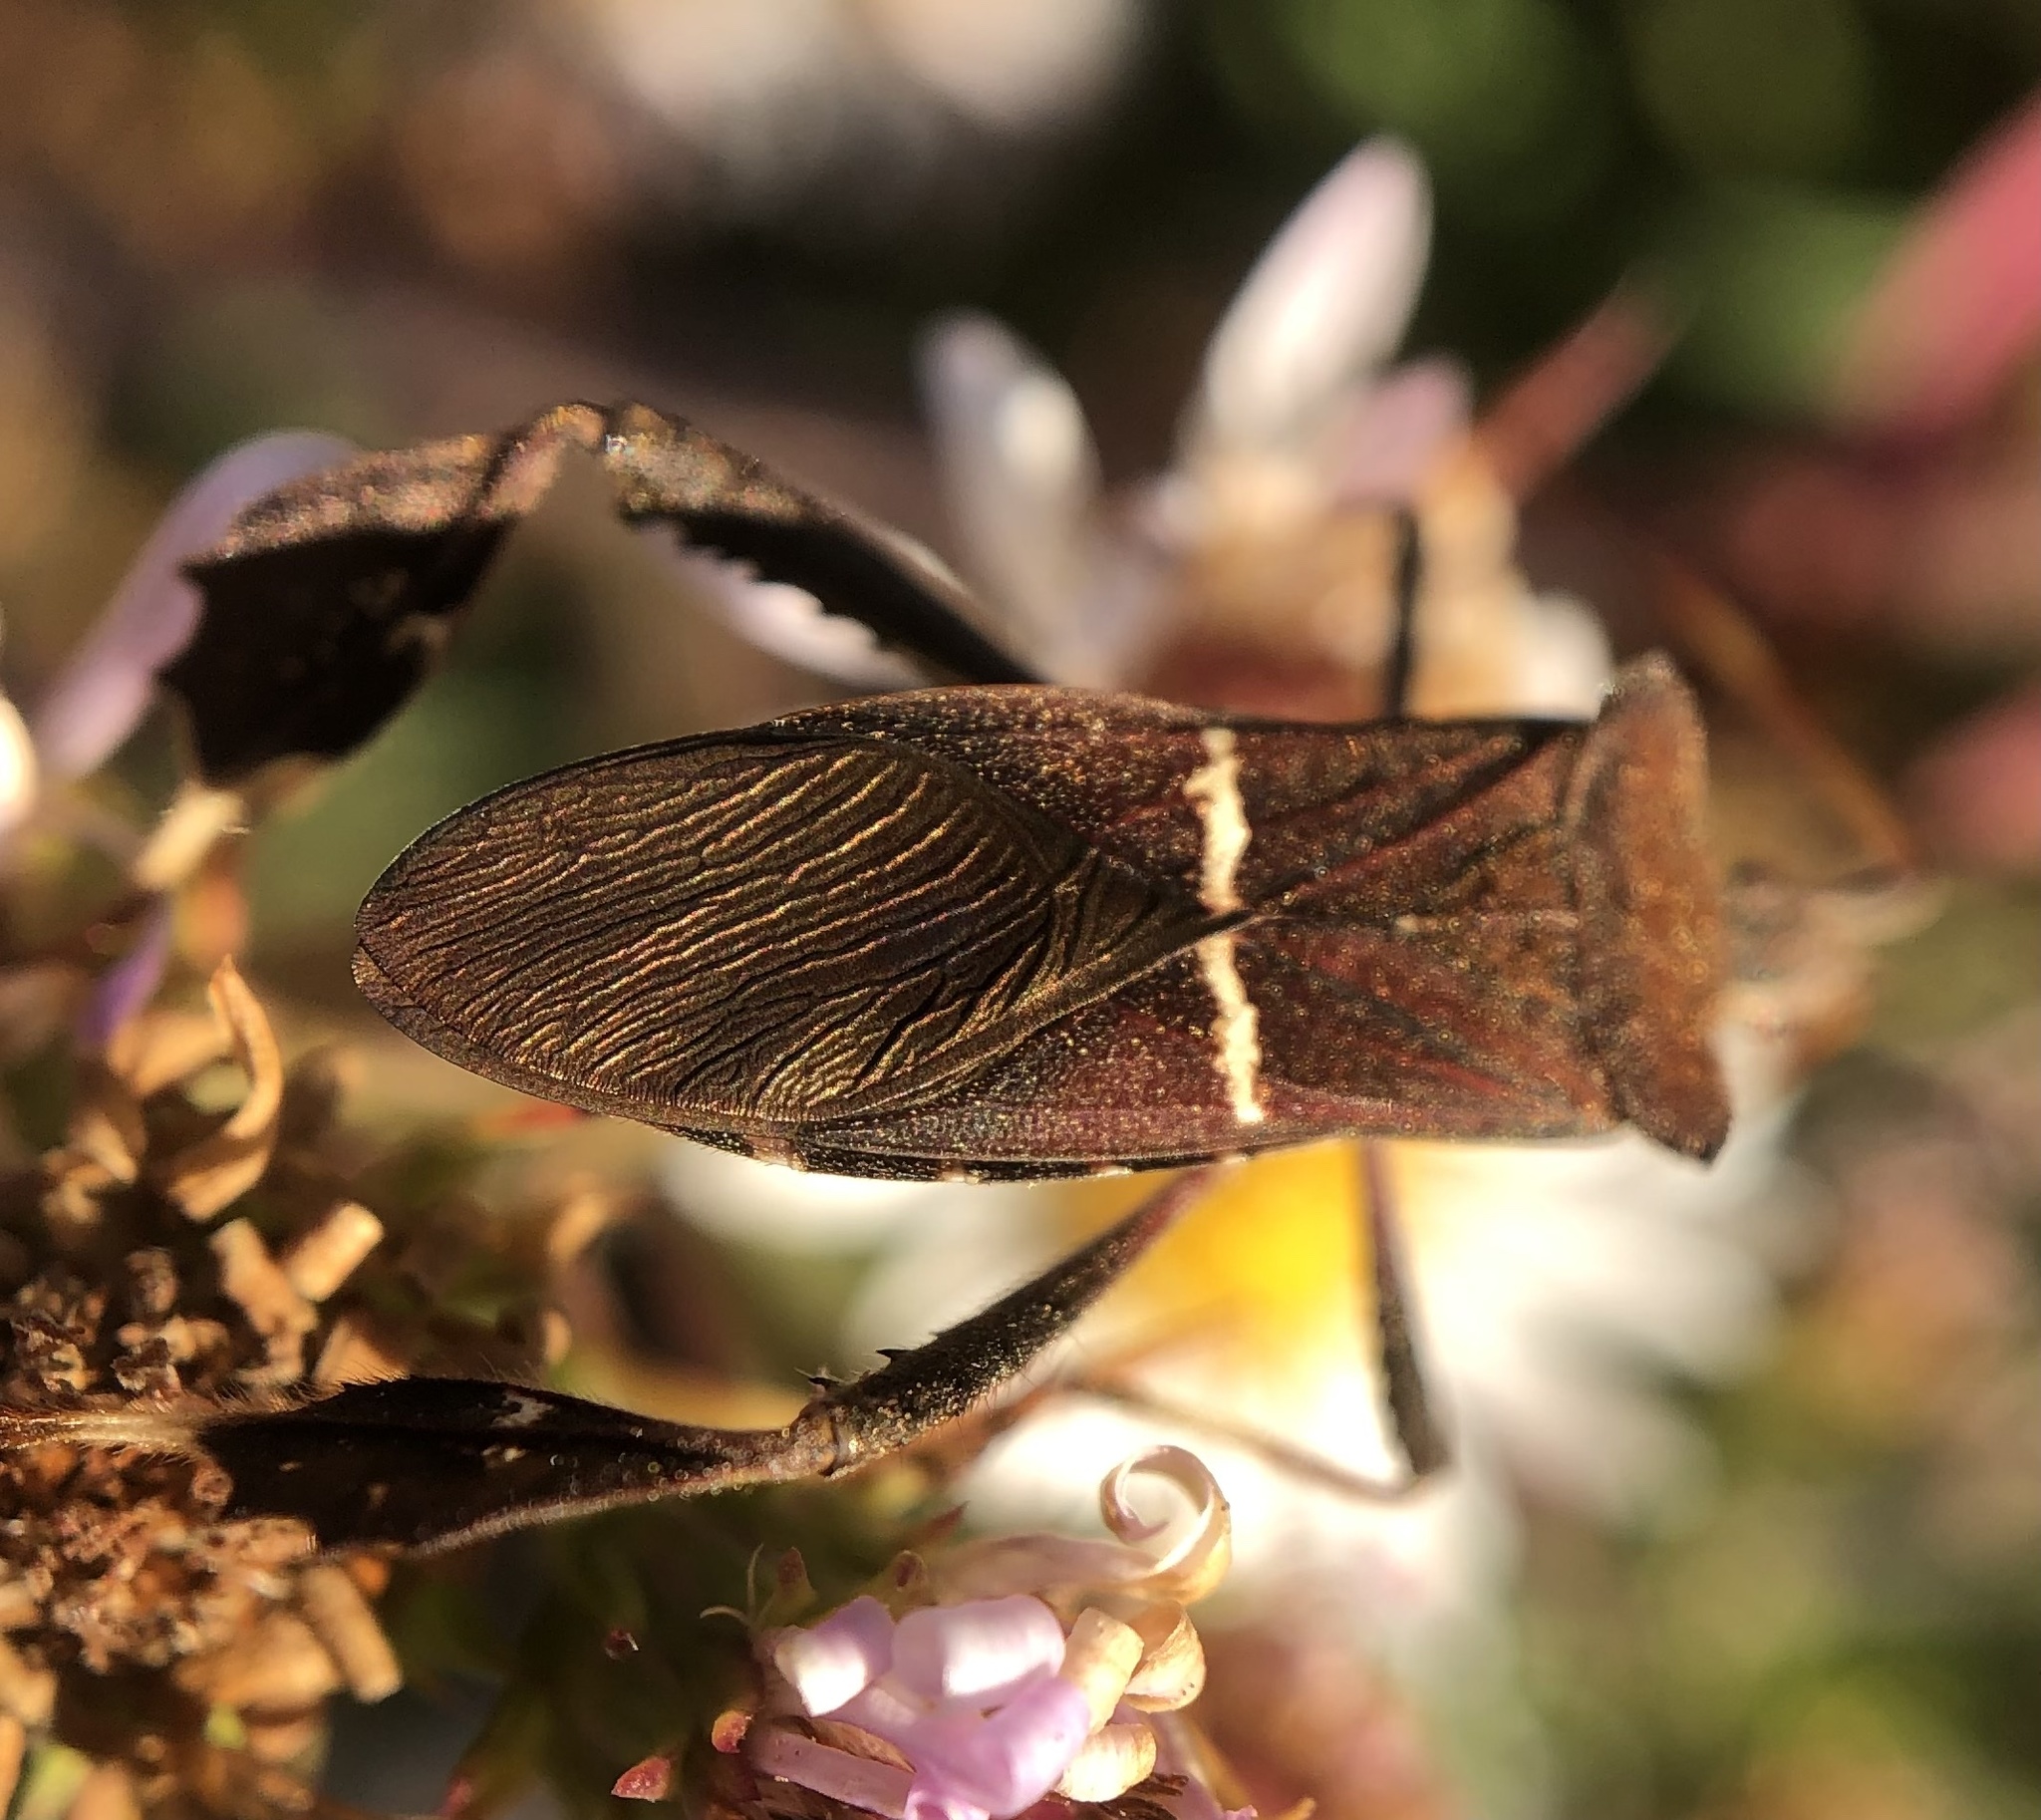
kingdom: Animalia
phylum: Arthropoda
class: Insecta
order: Hemiptera
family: Coreidae
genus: Leptoglossus
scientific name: Leptoglossus phyllopus
